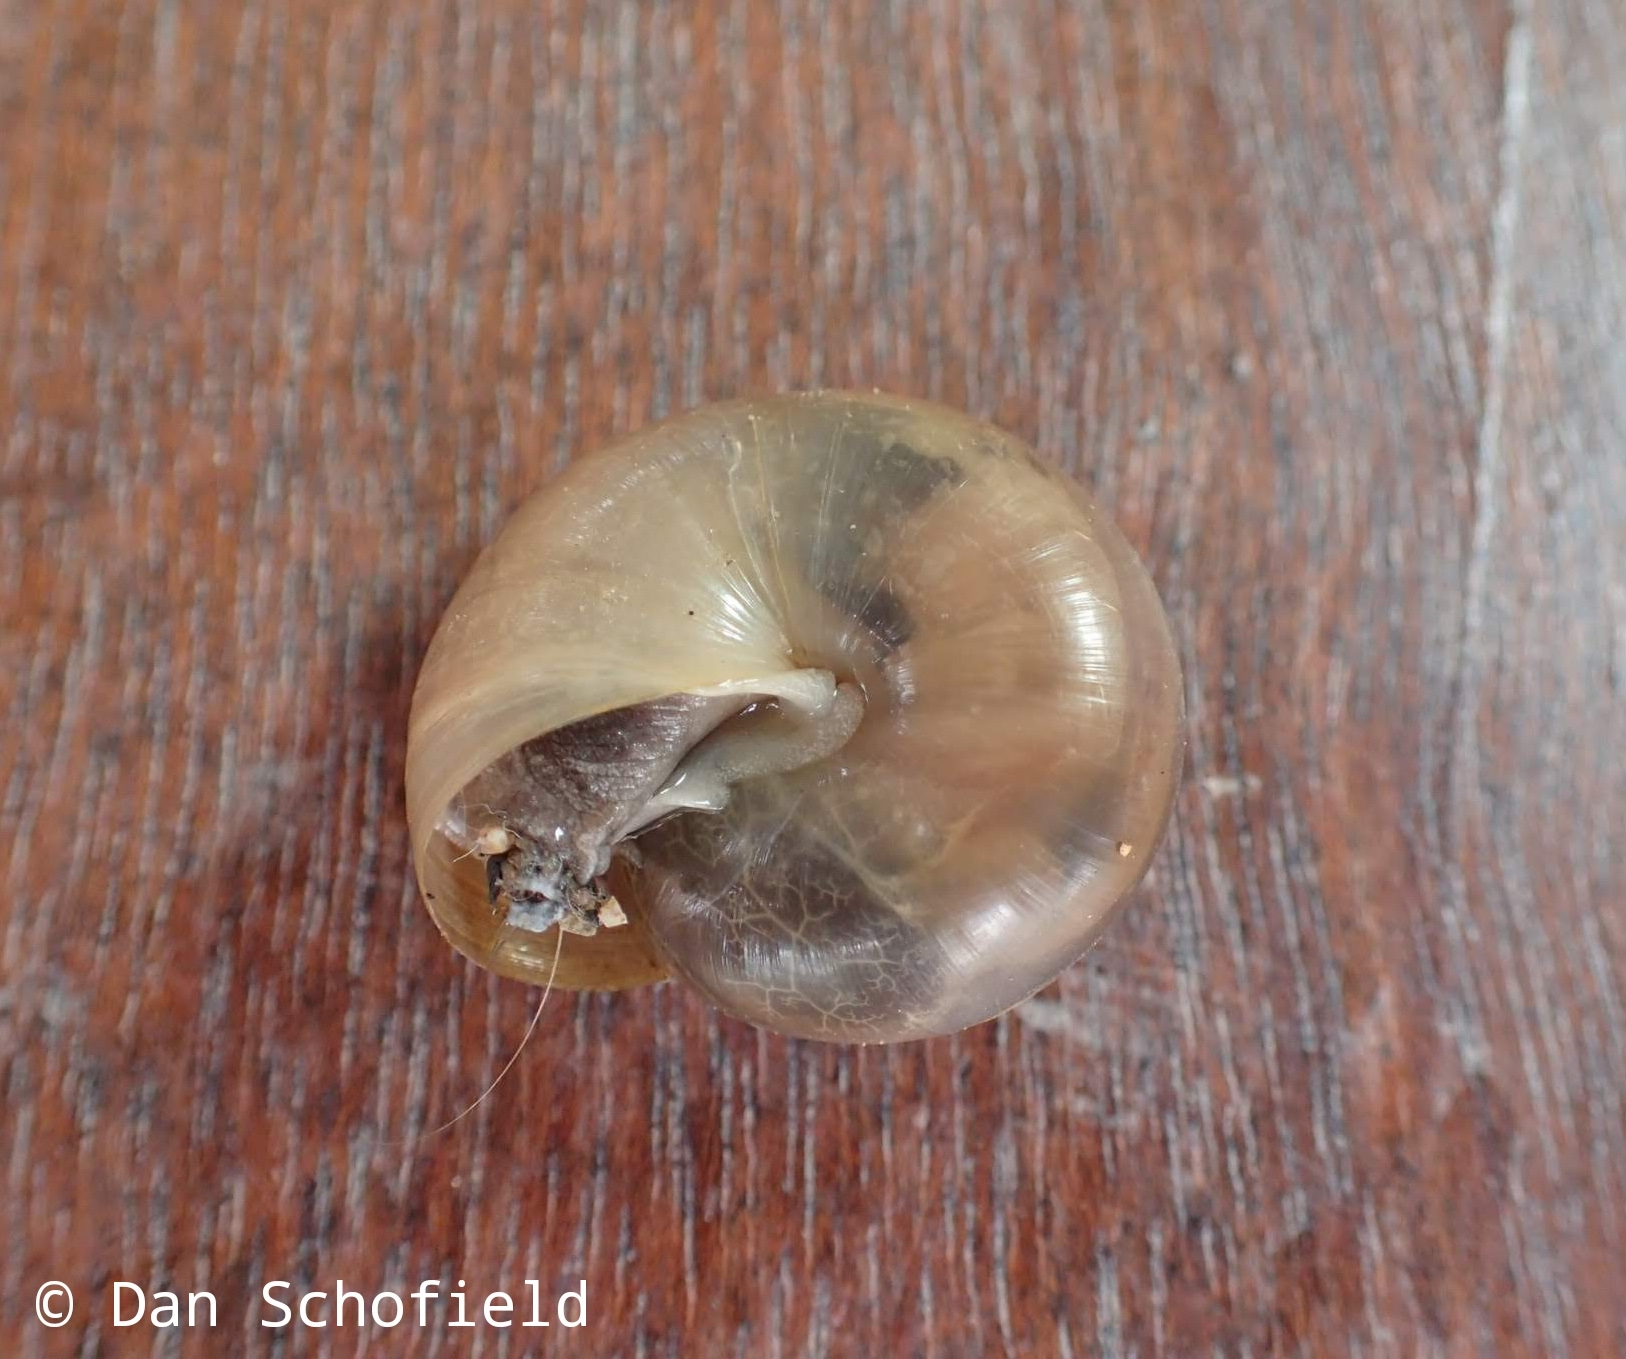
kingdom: Animalia
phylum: Mollusca
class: Gastropoda
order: Stylommatophora
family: Ariophantidae
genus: Sarika
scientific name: Sarika siamensis
